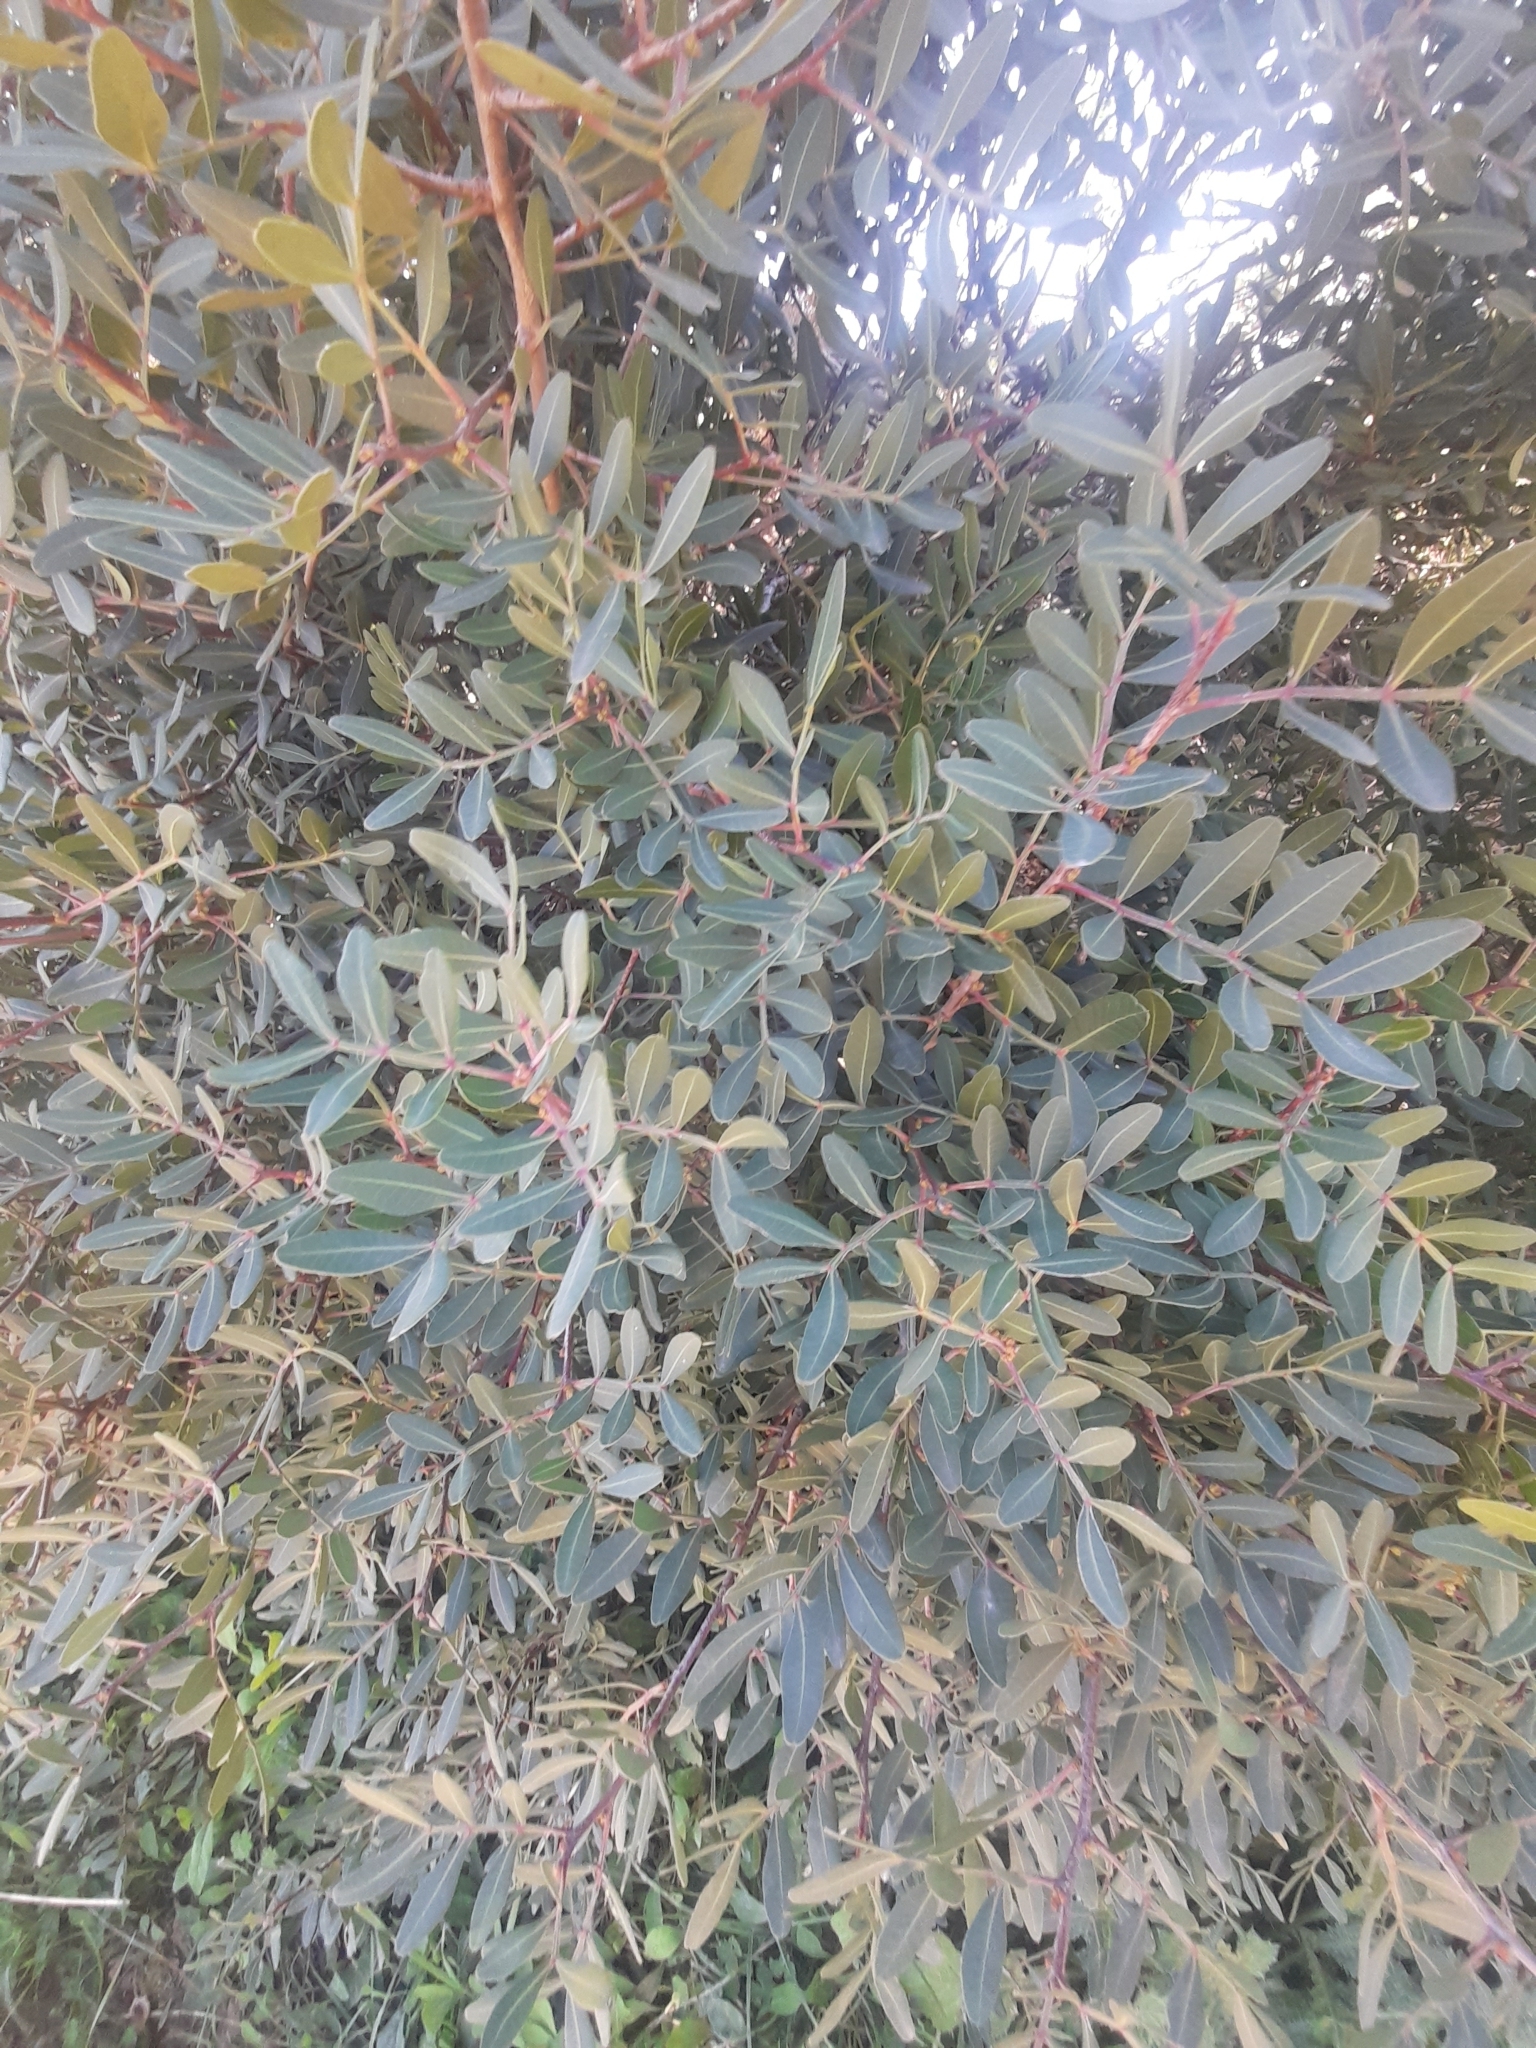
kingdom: Plantae
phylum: Tracheophyta
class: Magnoliopsida
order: Sapindales
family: Anacardiaceae
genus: Pistacia
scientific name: Pistacia lentiscus
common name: Lentisk
